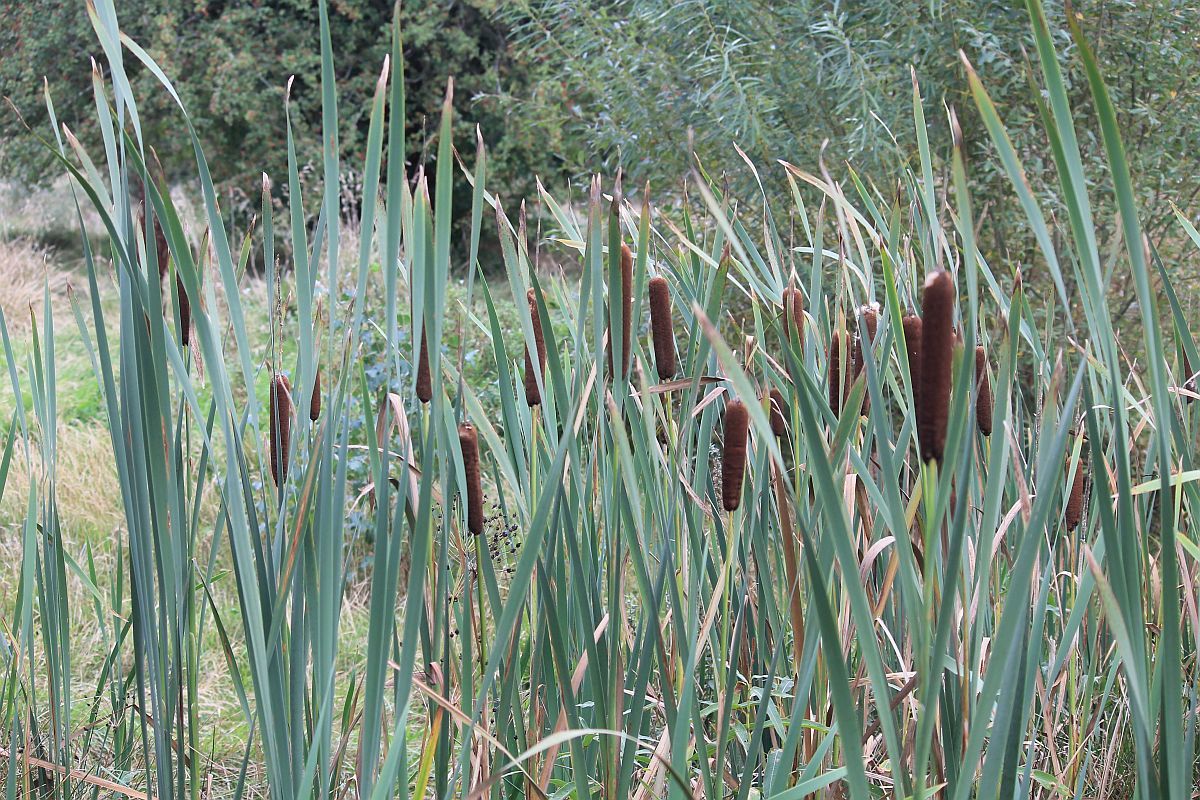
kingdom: Plantae
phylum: Tracheophyta
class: Liliopsida
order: Poales
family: Typhaceae
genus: Typha
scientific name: Typha latifolia
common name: Broadleaf cattail
